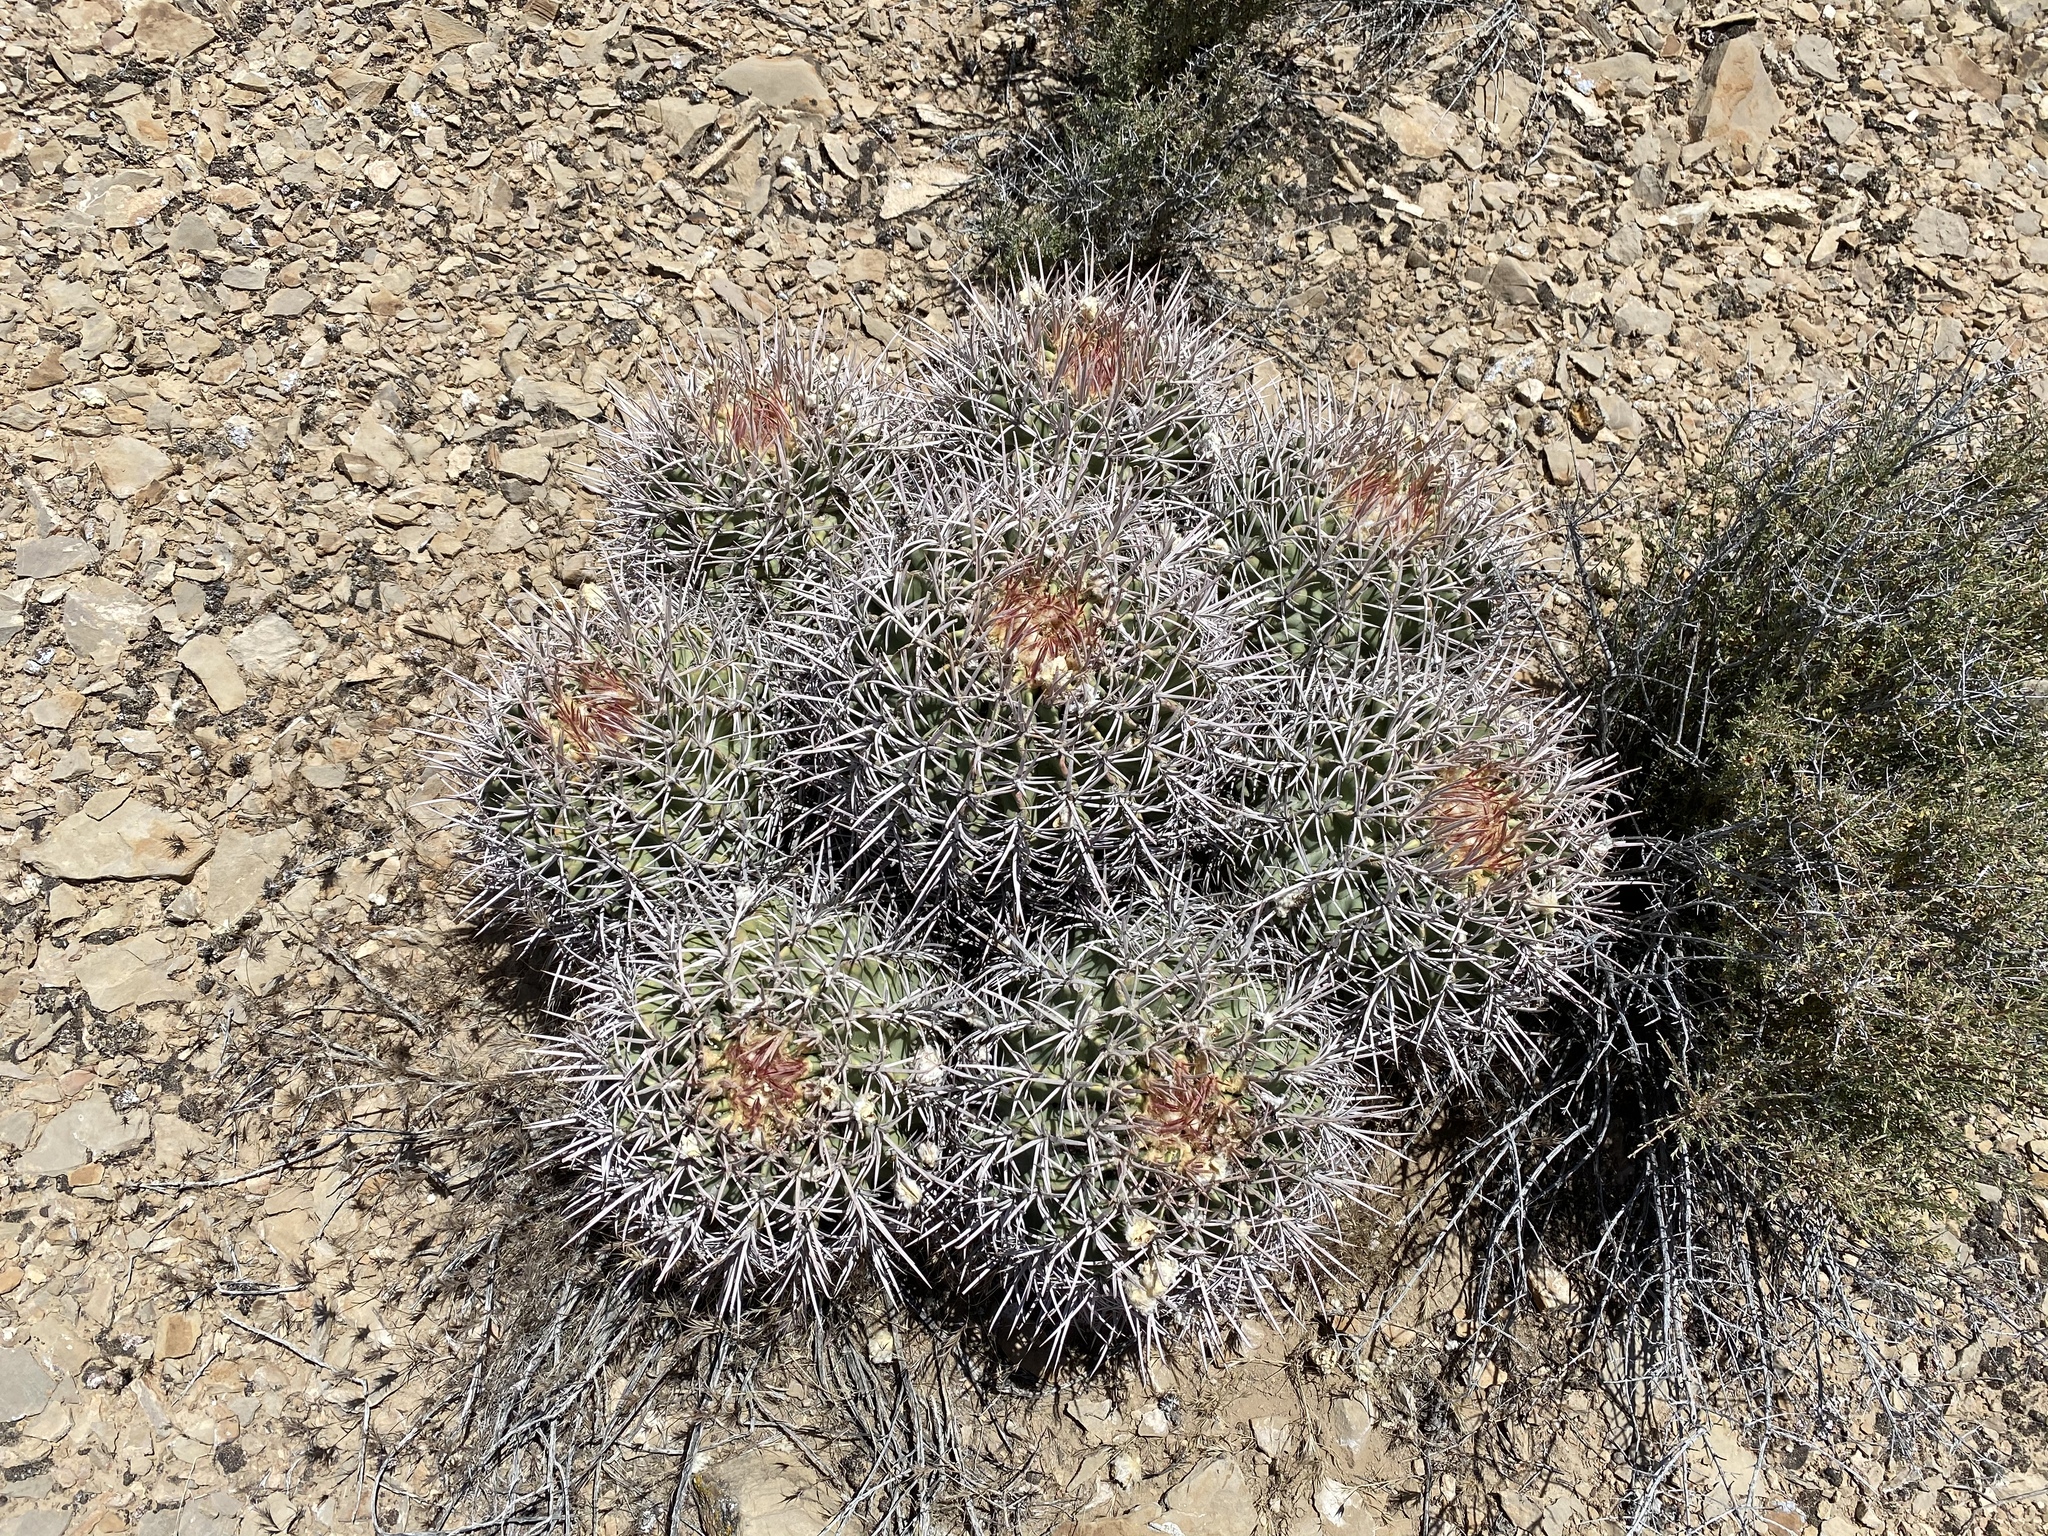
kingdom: Plantae
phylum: Tracheophyta
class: Magnoliopsida
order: Caryophyllales
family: Cactaceae
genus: Echinocactus
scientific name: Echinocactus polycephalus
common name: Cottontop cactus
